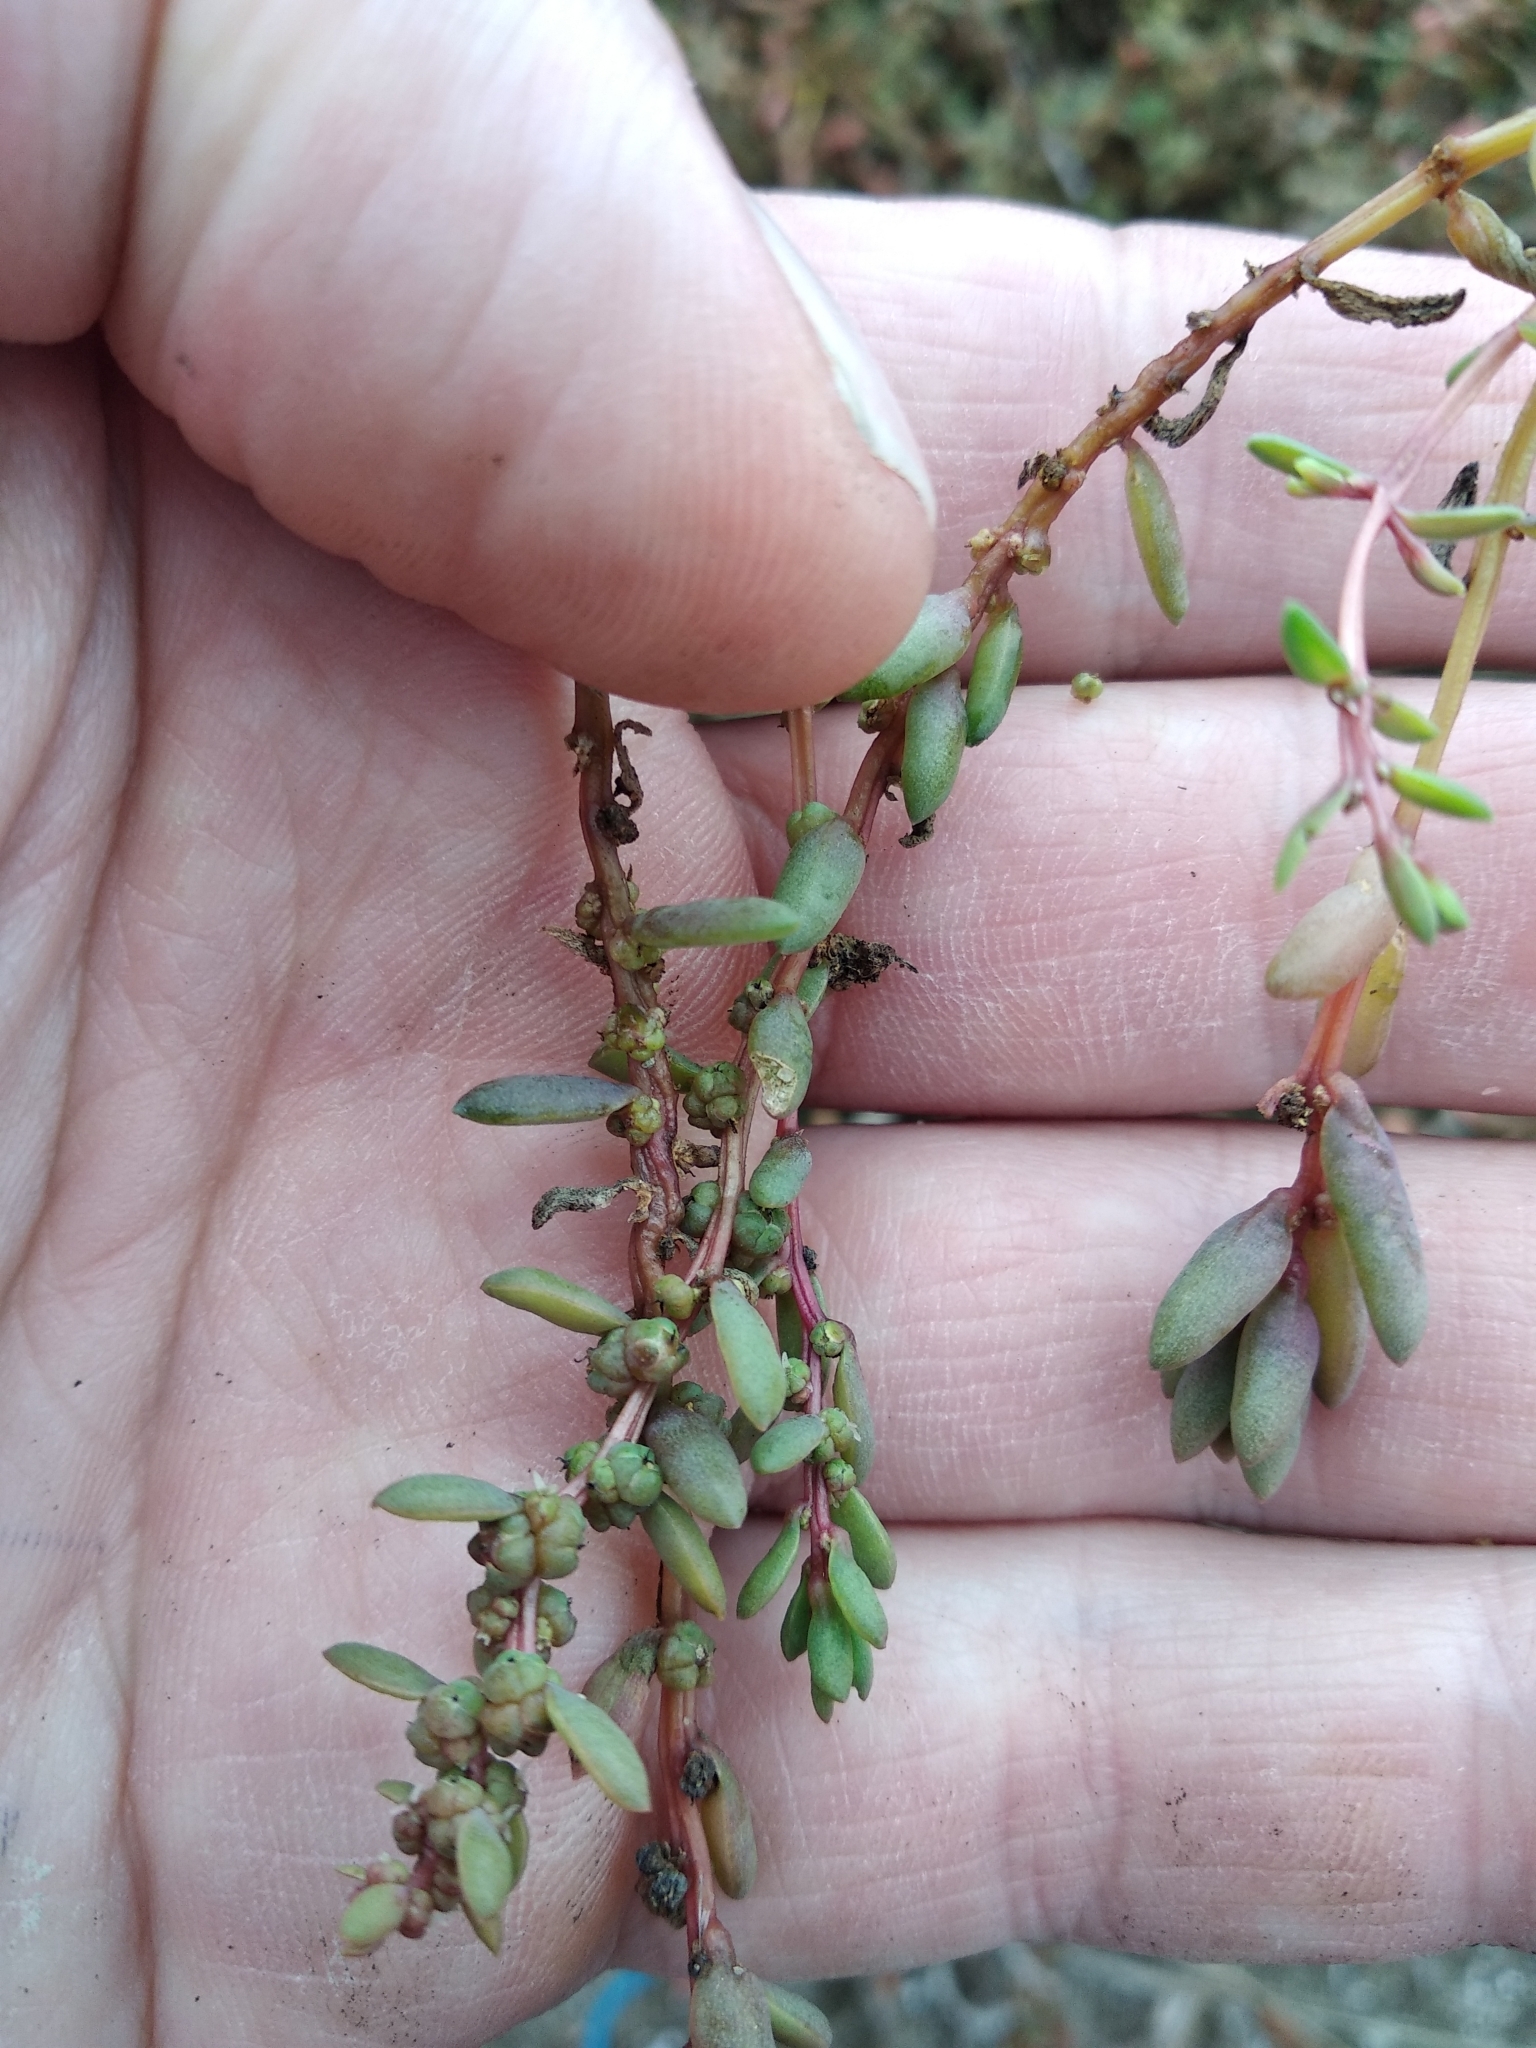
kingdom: Plantae
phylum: Tracheophyta
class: Magnoliopsida
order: Caryophyllales
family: Amaranthaceae
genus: Suaeda
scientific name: Suaeda novae-zelandiae
